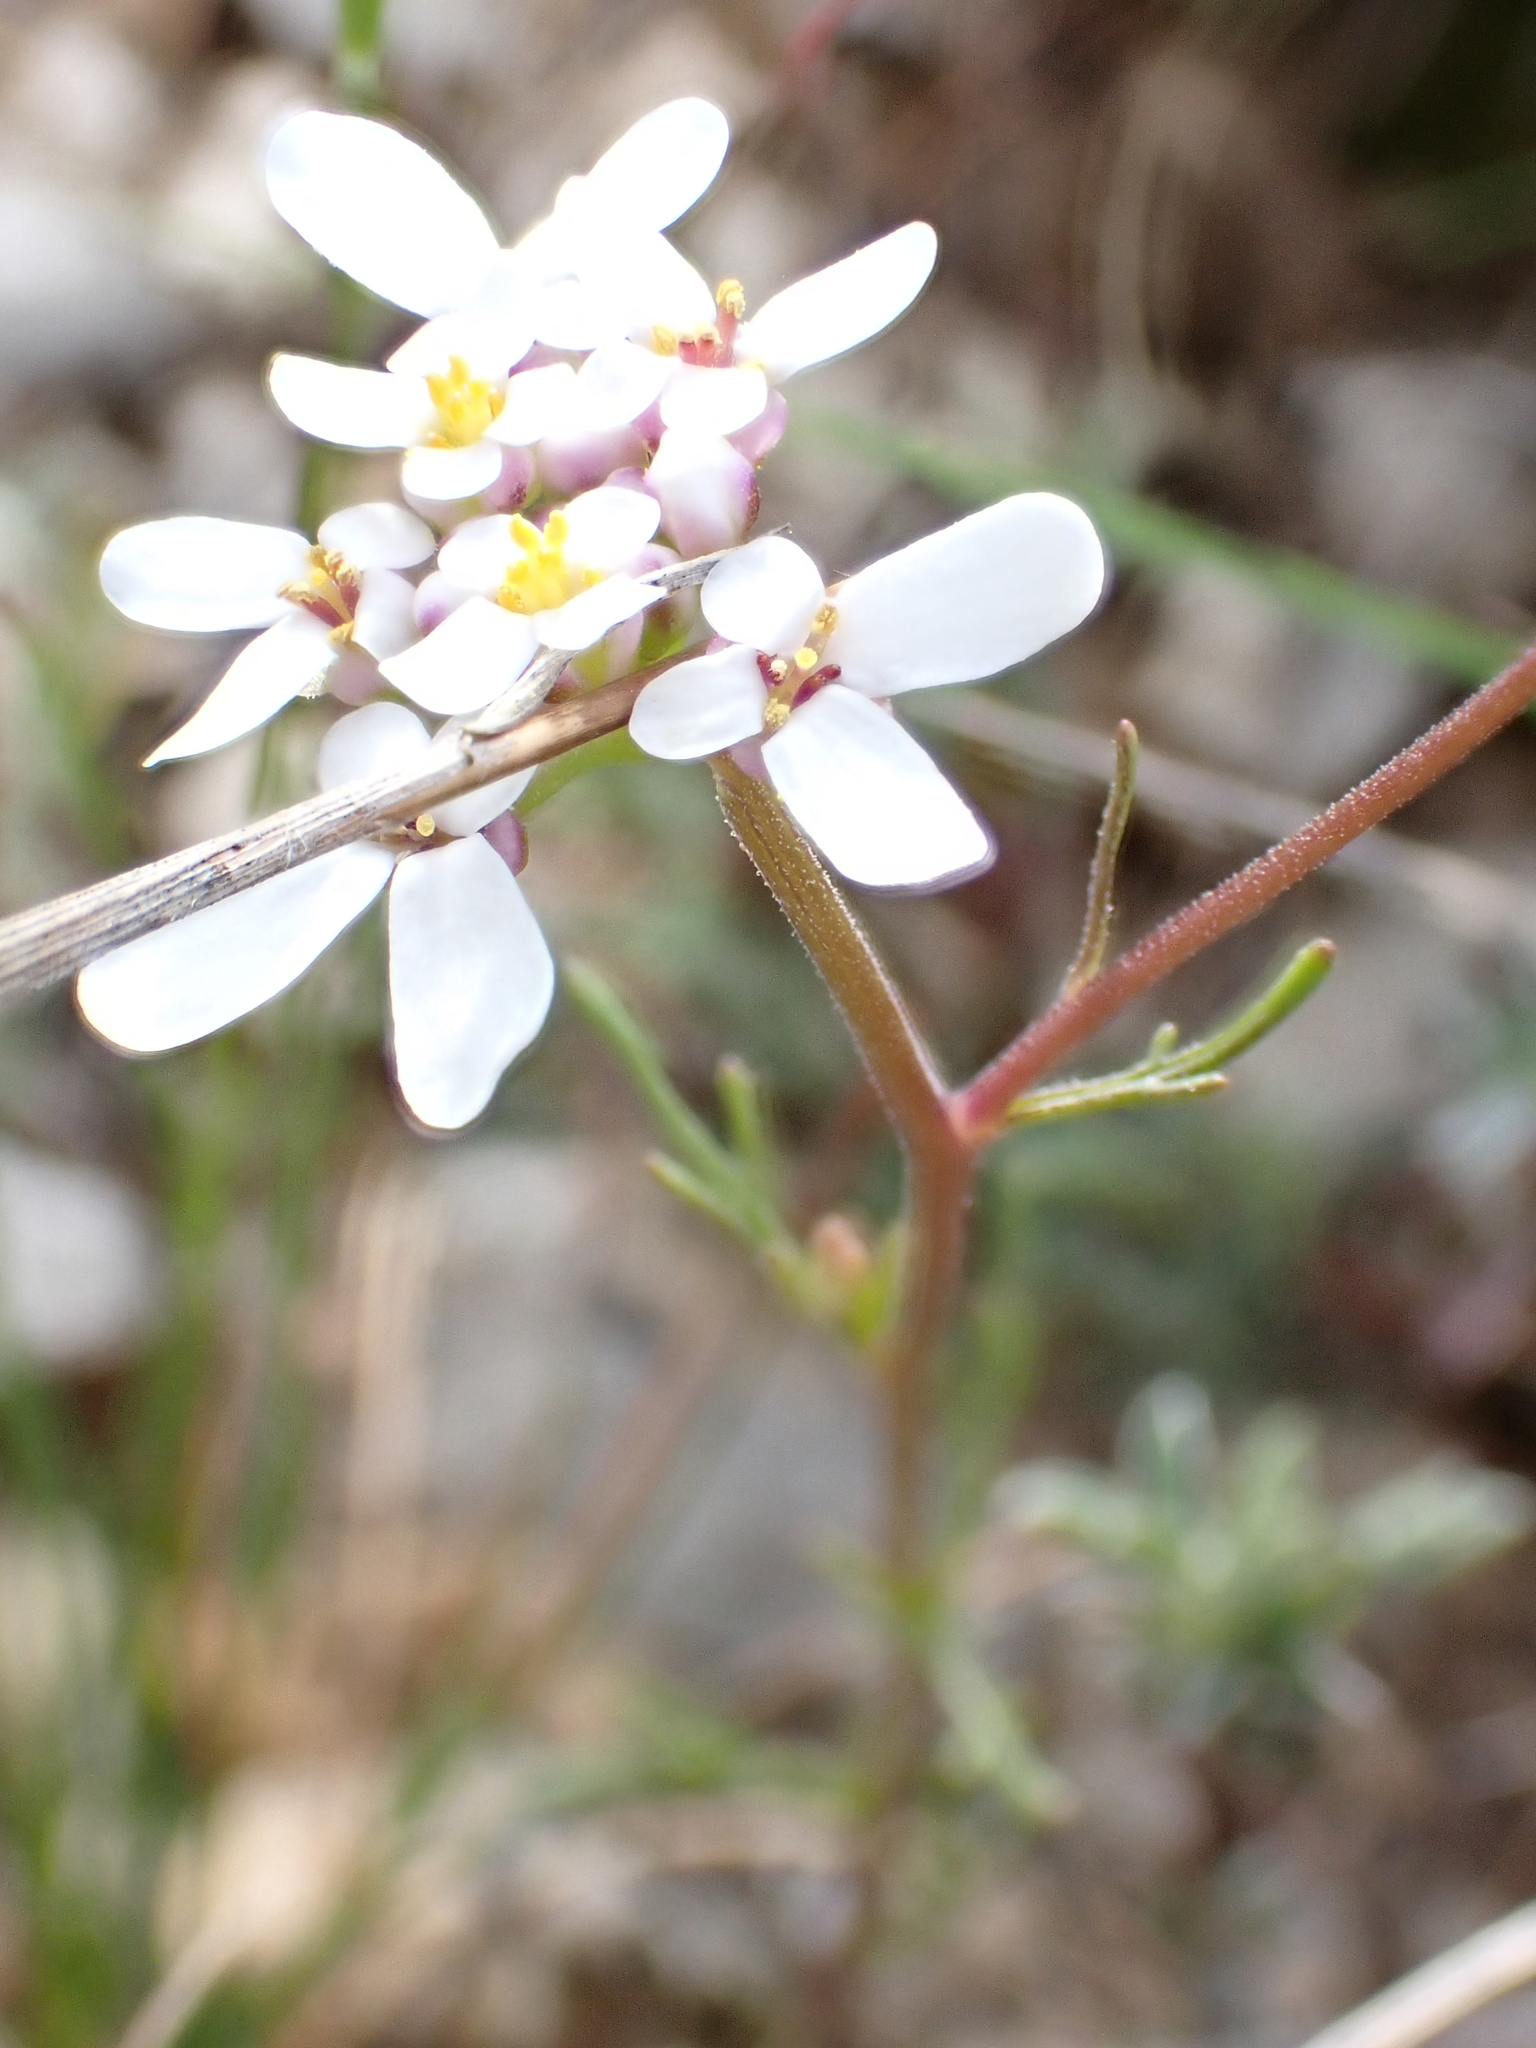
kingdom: Plantae
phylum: Tracheophyta
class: Magnoliopsida
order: Brassicales
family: Brassicaceae
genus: Iberis
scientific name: Iberis pinnata
